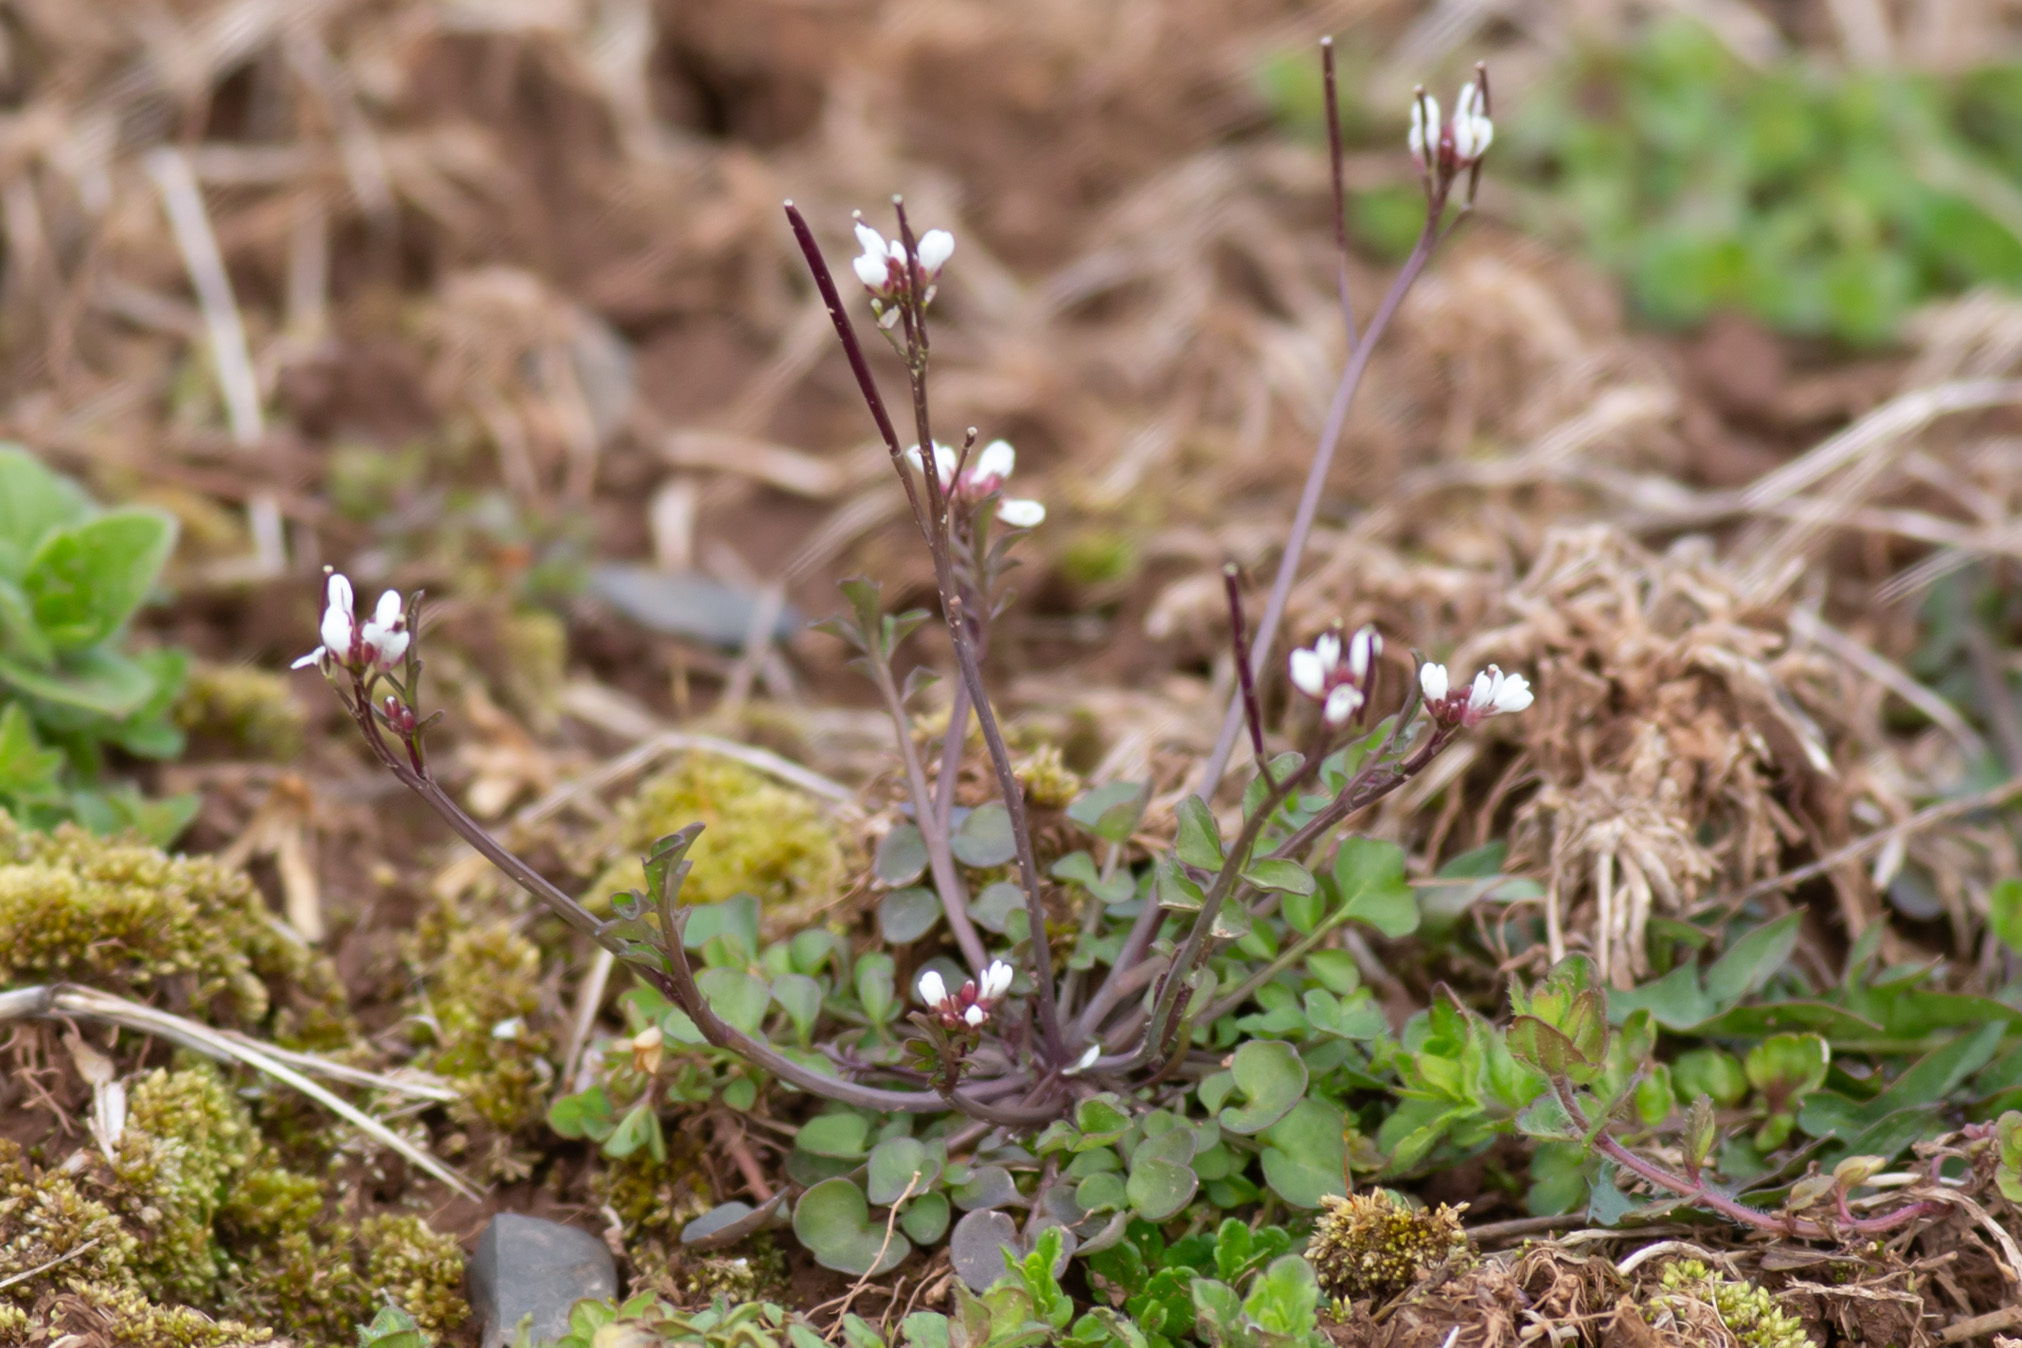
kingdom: Plantae
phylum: Tracheophyta
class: Magnoliopsida
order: Brassicales
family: Brassicaceae
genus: Cardamine
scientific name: Cardamine hirsuta
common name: Hairy bittercress
